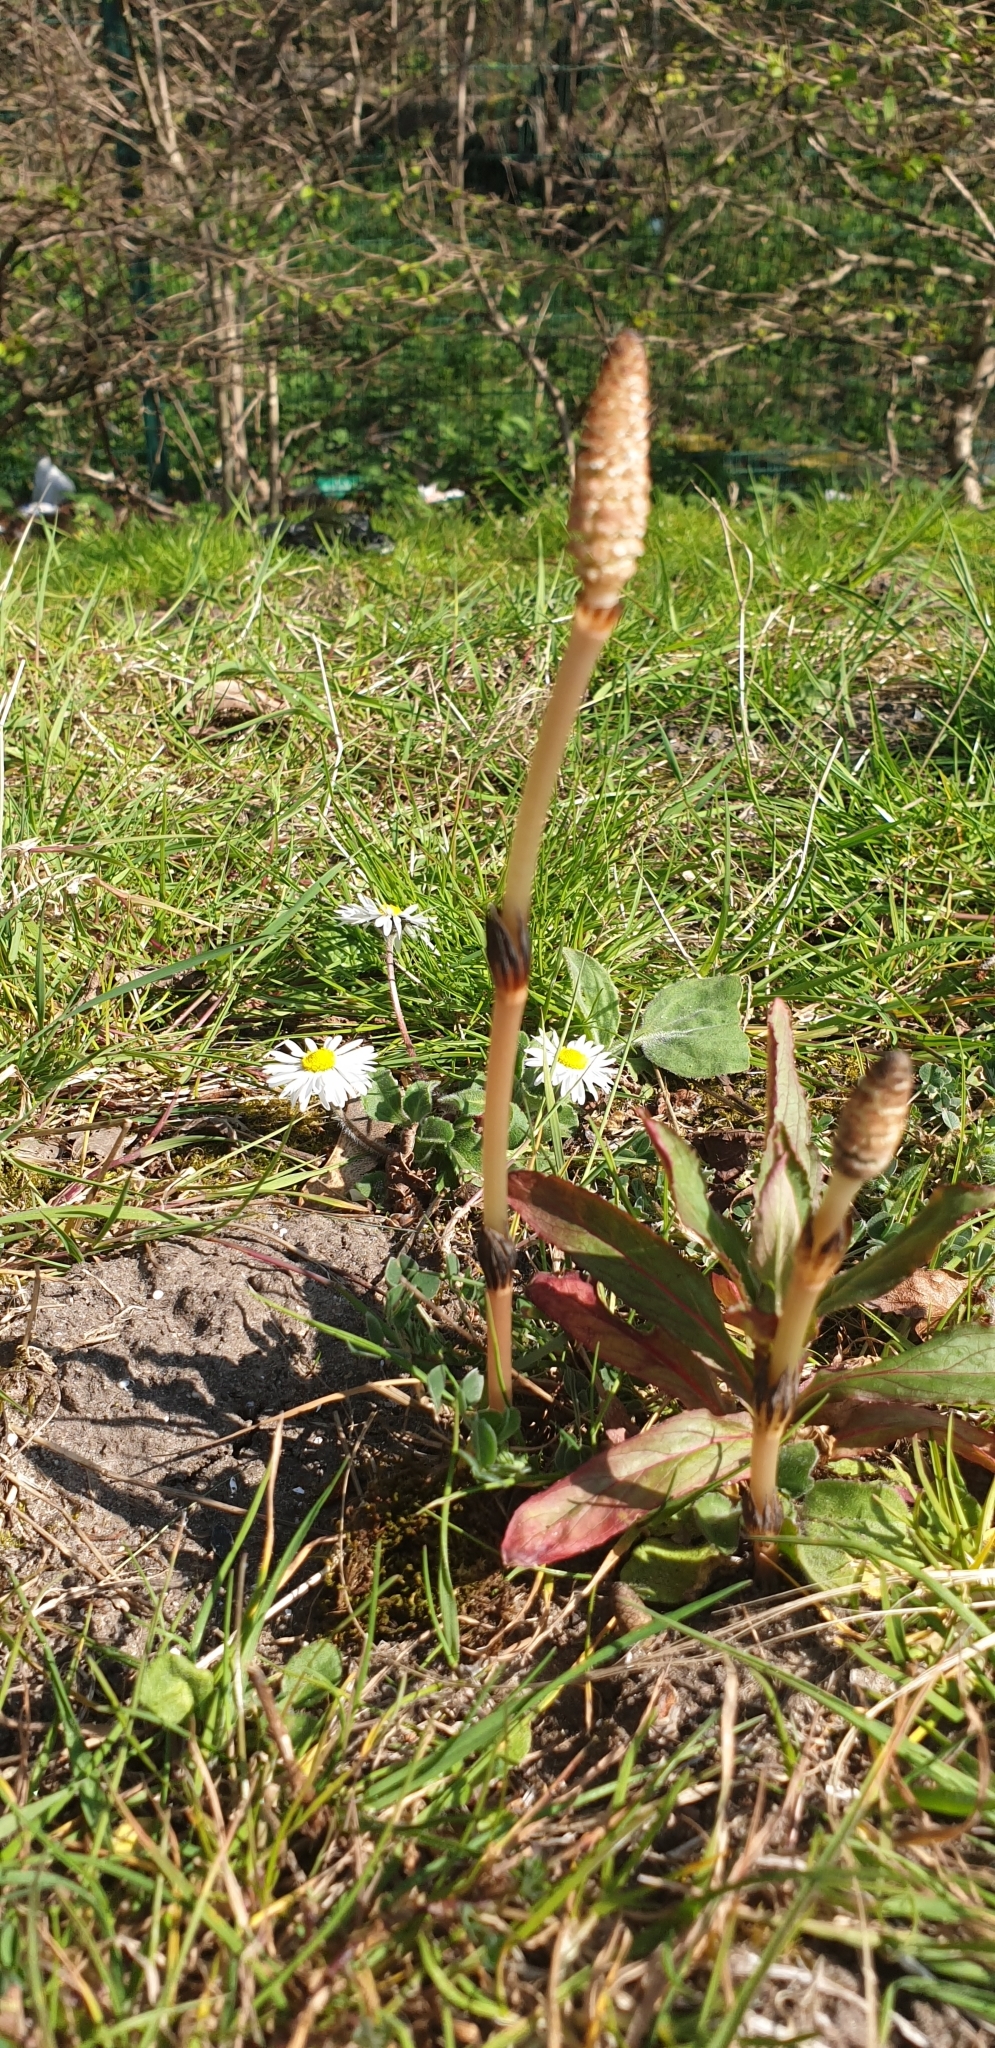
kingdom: Plantae
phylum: Tracheophyta
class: Polypodiopsida
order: Equisetales
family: Equisetaceae
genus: Equisetum
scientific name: Equisetum arvense
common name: Field horsetail
